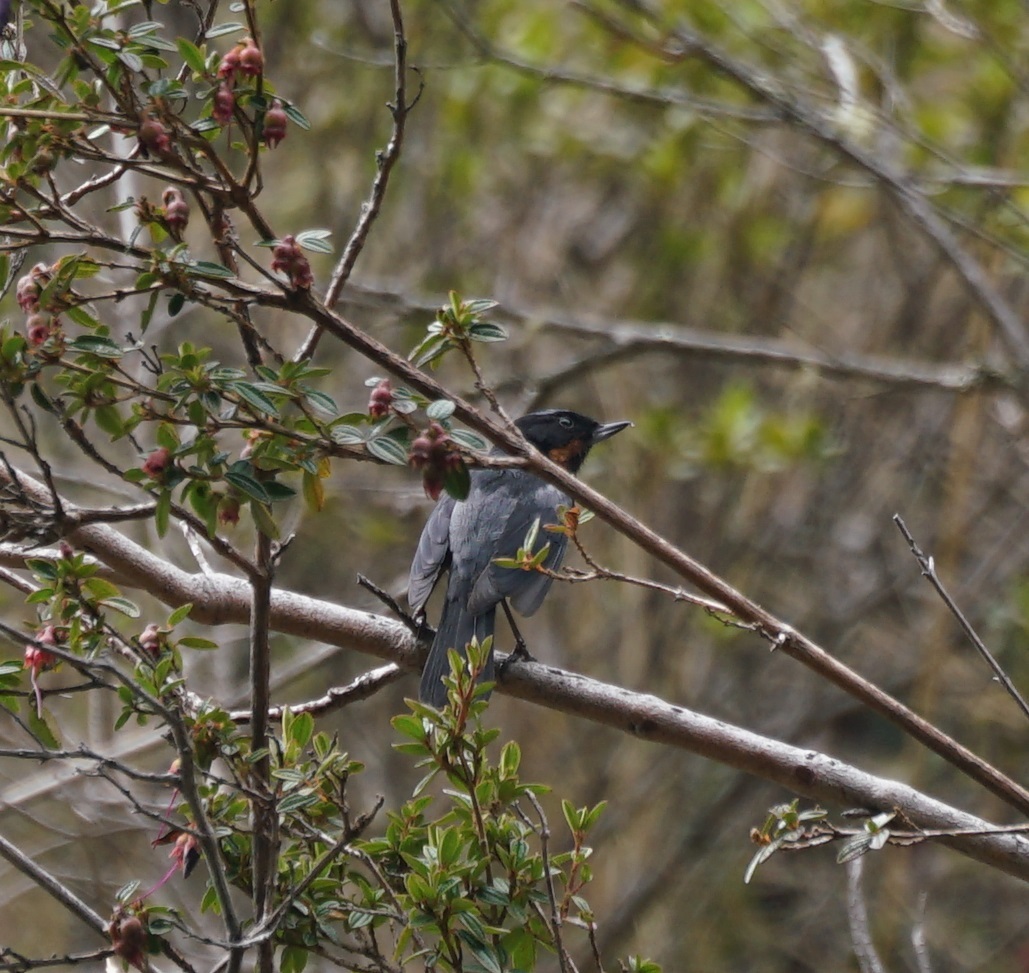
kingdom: Animalia
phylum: Chordata
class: Aves
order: Passeriformes
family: Thraupidae
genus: Diglossa
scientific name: Diglossa brunneiventris
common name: Black-throated flowerpiercer
